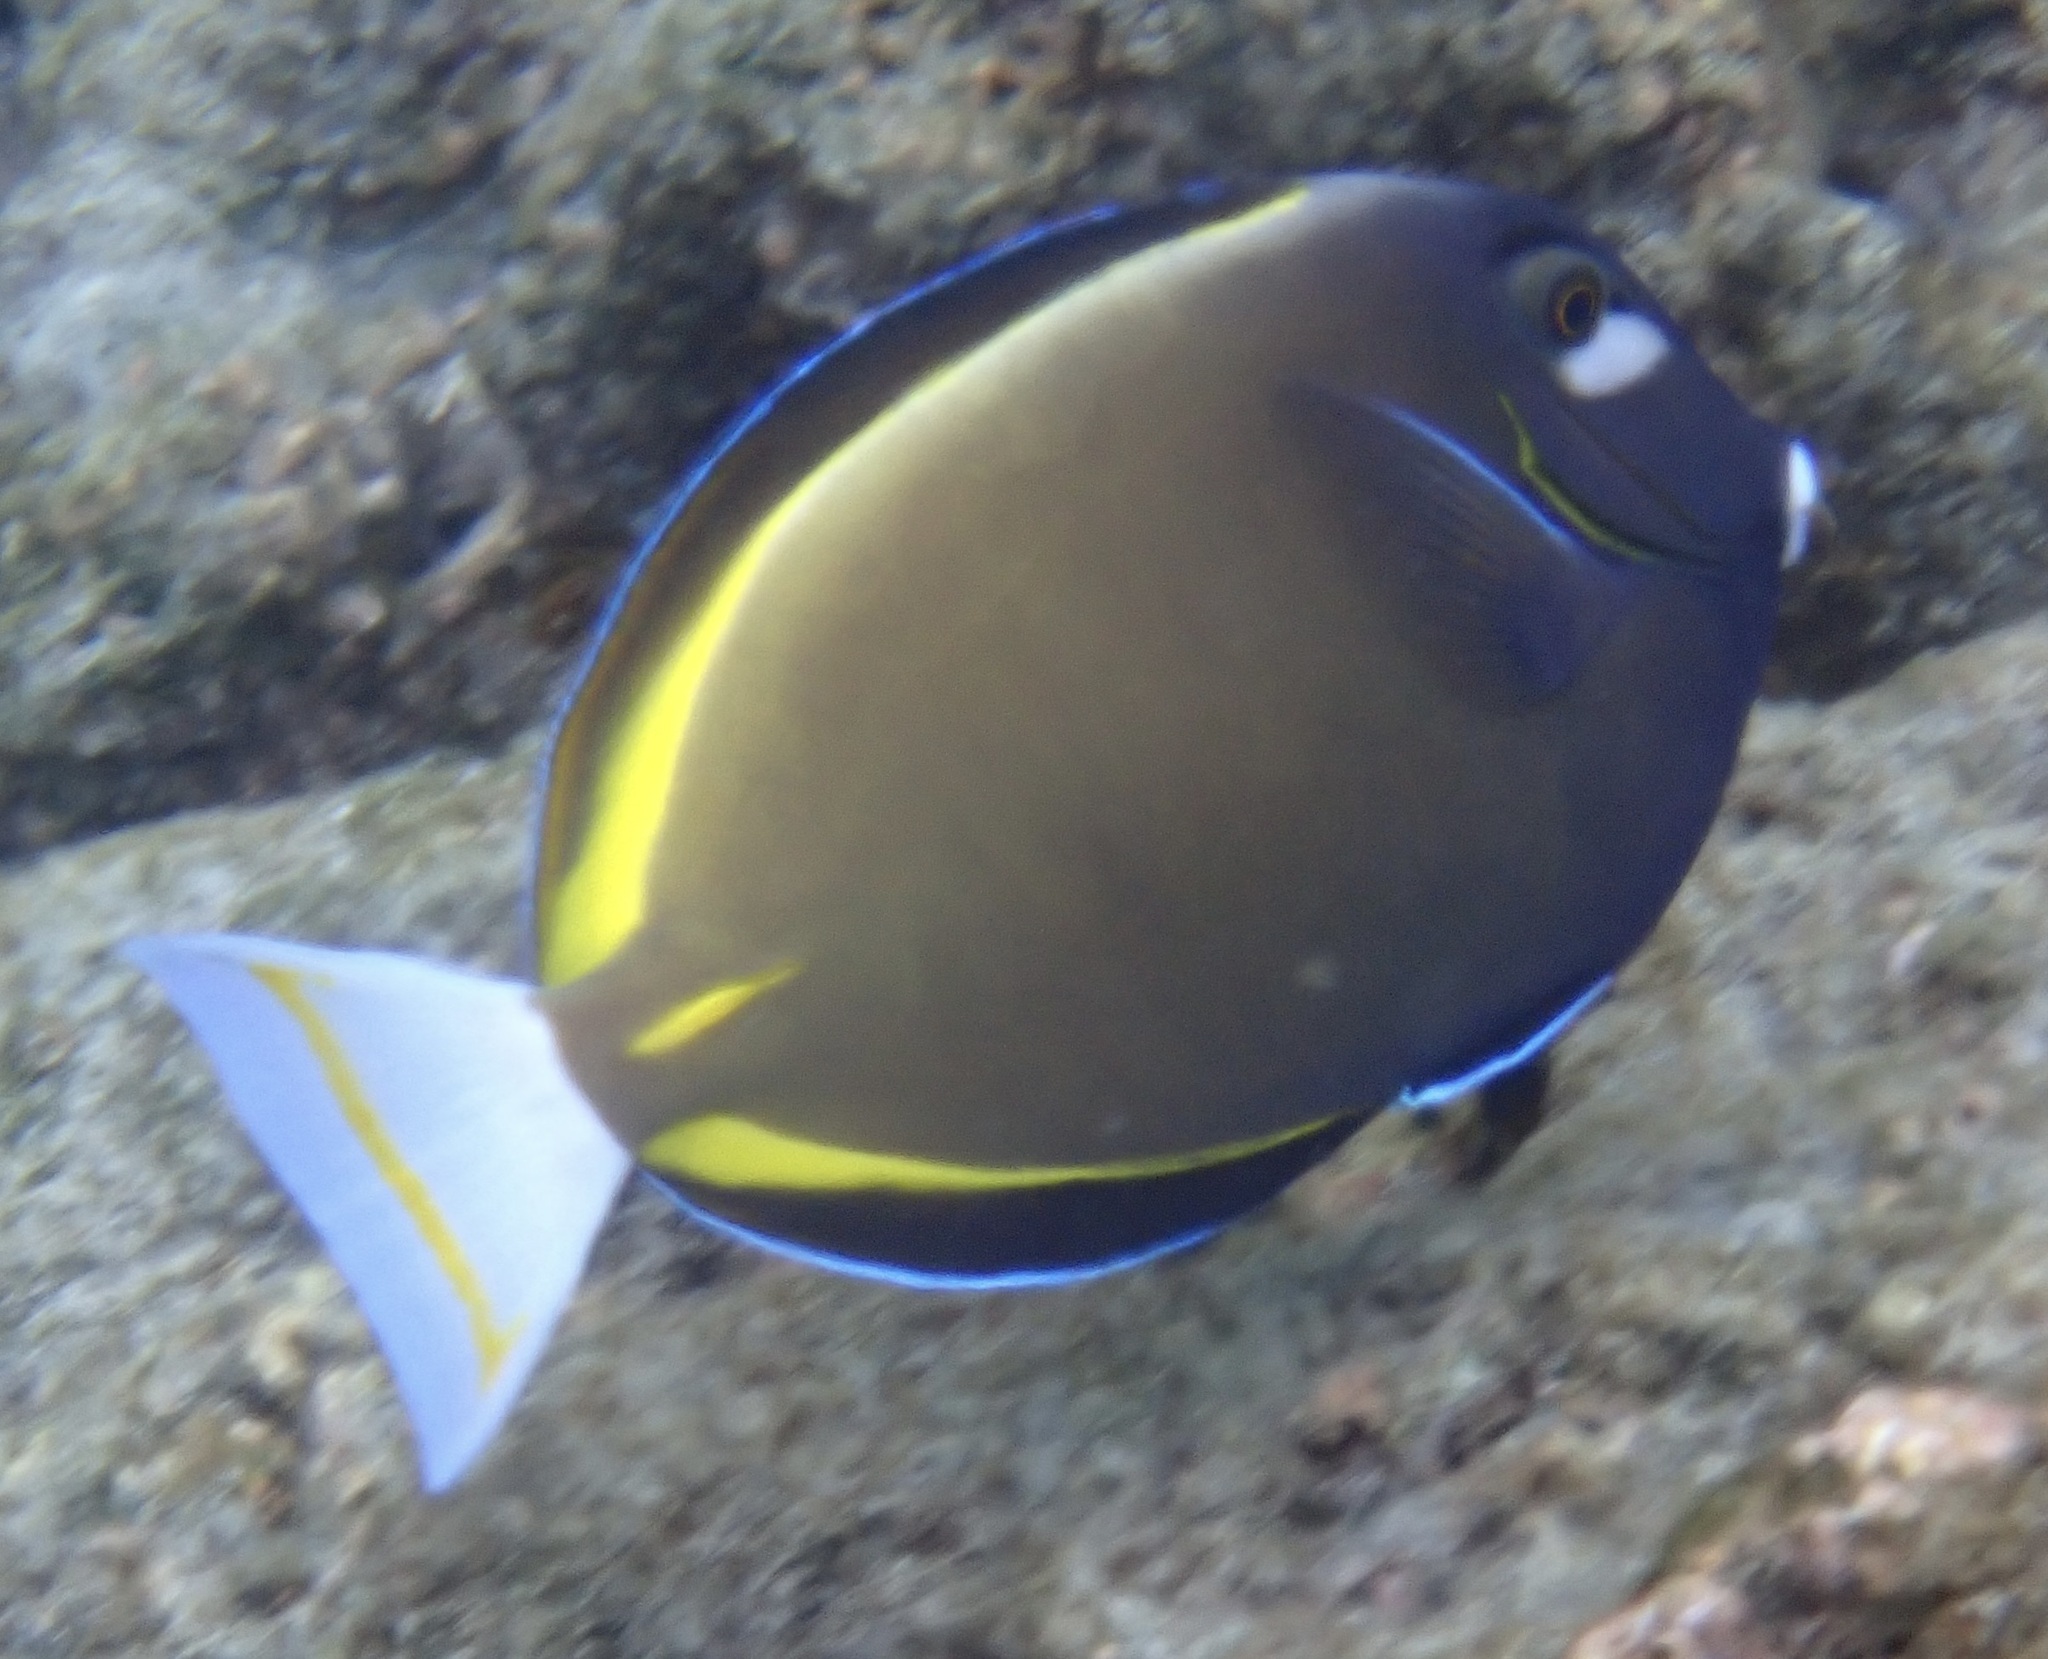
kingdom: Animalia
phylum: Chordata
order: Perciformes
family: Acanthuridae
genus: Acanthurus
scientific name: Acanthurus nigricans
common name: Whitecheek surgeonfish
